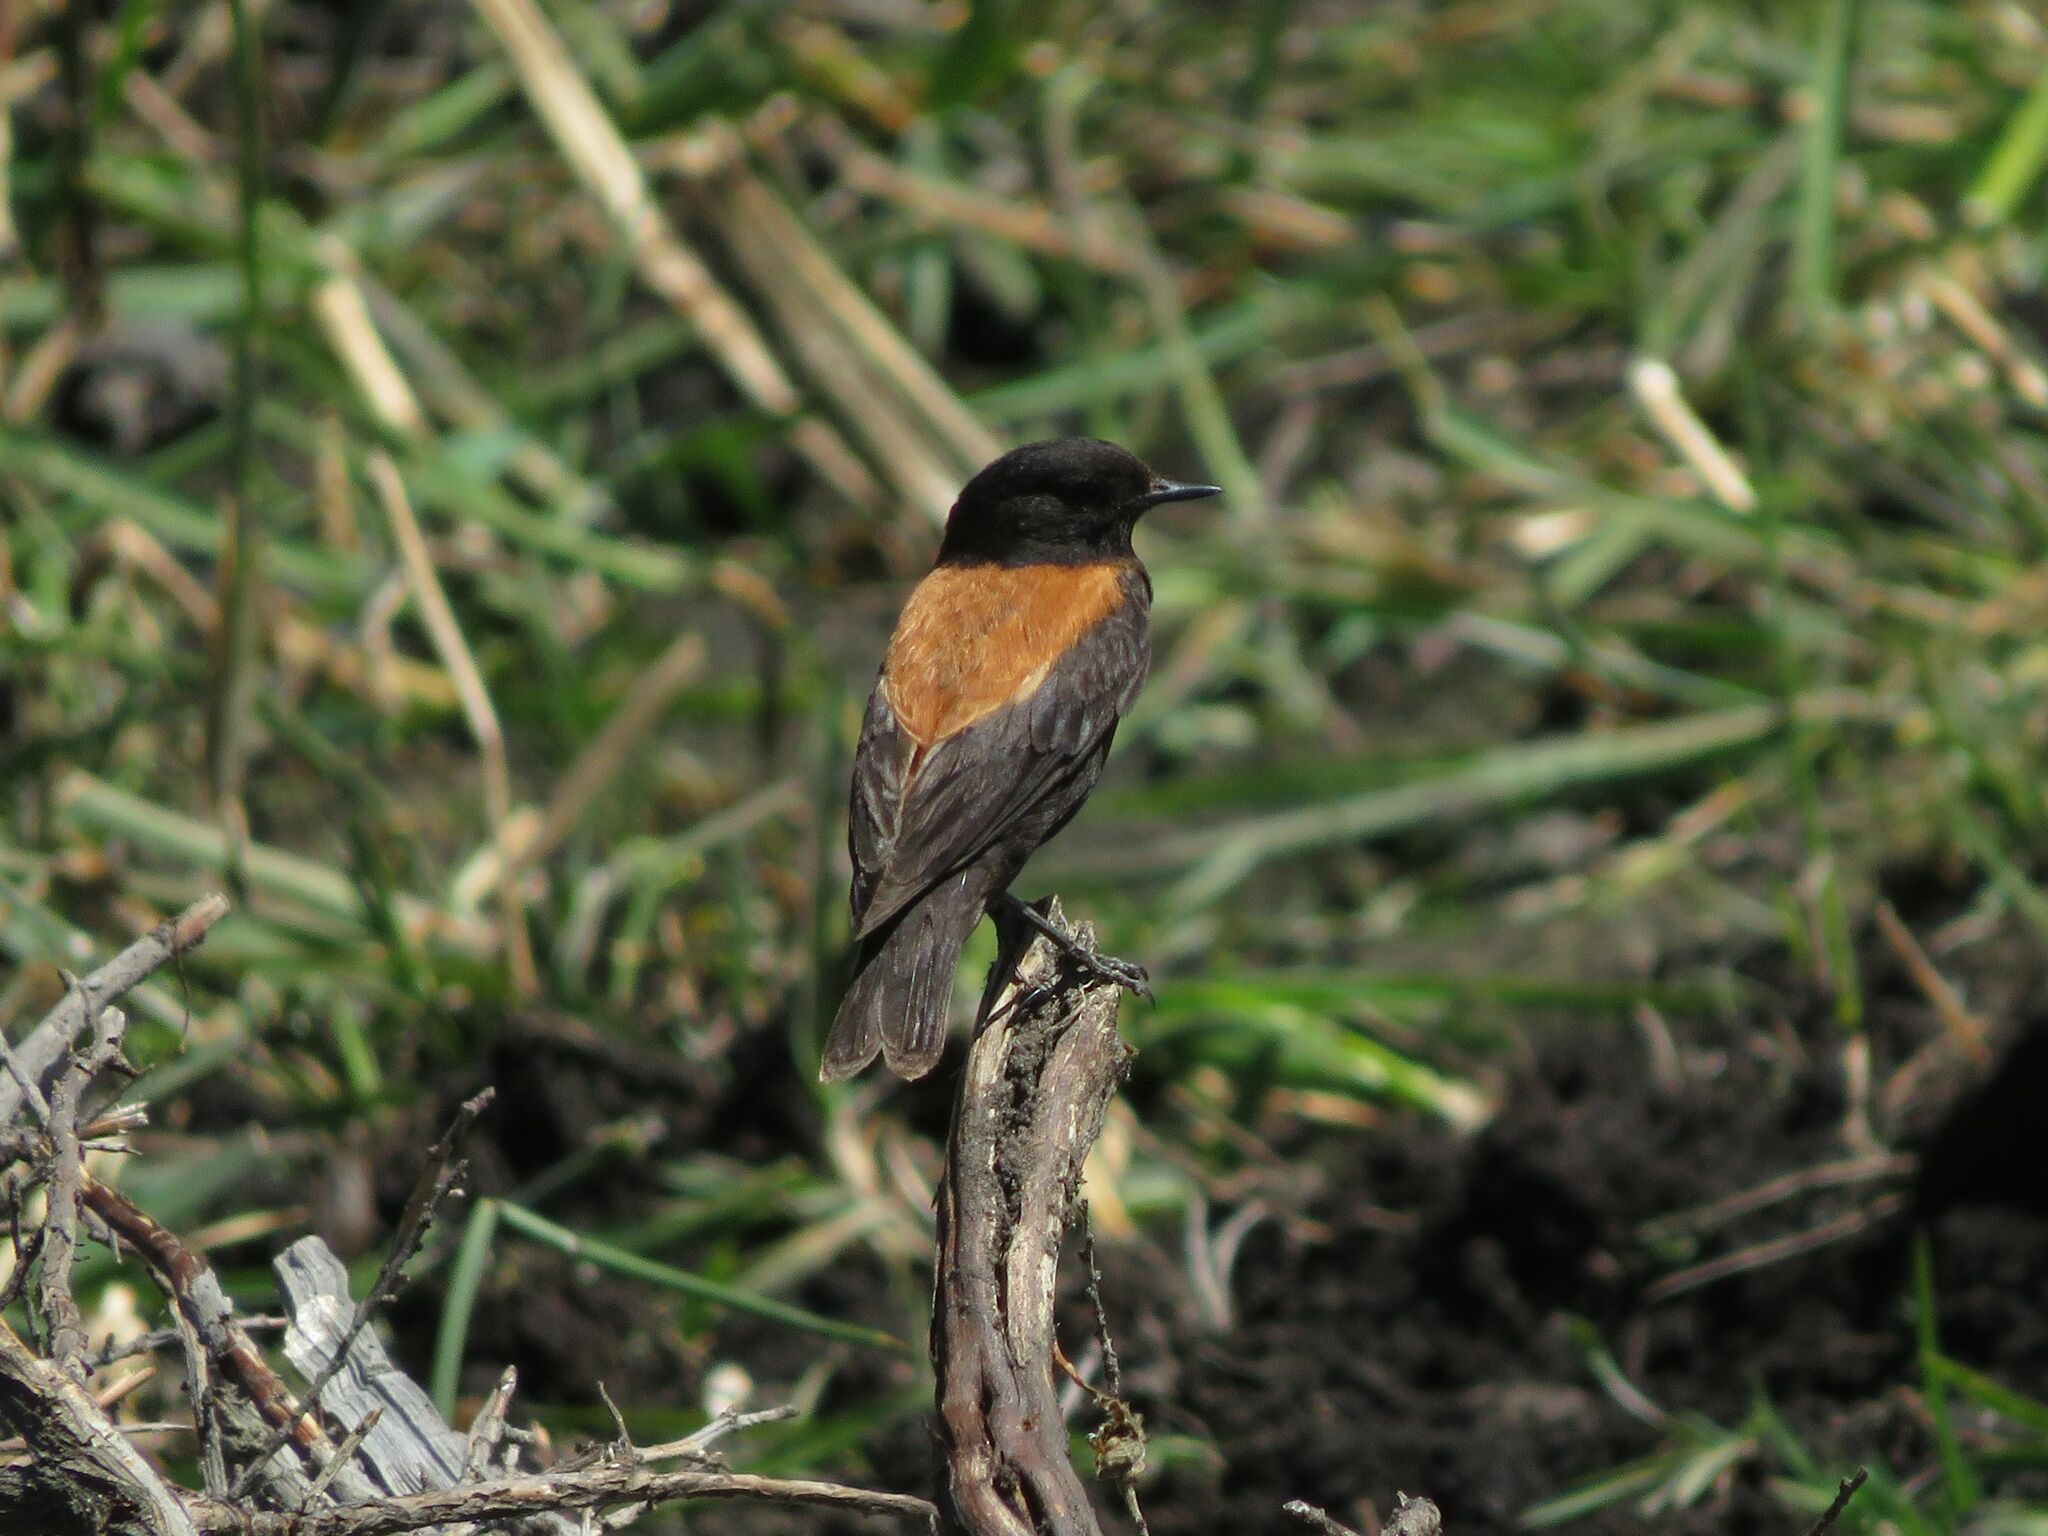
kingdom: Animalia
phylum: Chordata
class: Aves
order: Passeriformes
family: Tyrannidae
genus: Lessonia
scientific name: Lessonia rufa
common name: Austral negrito
